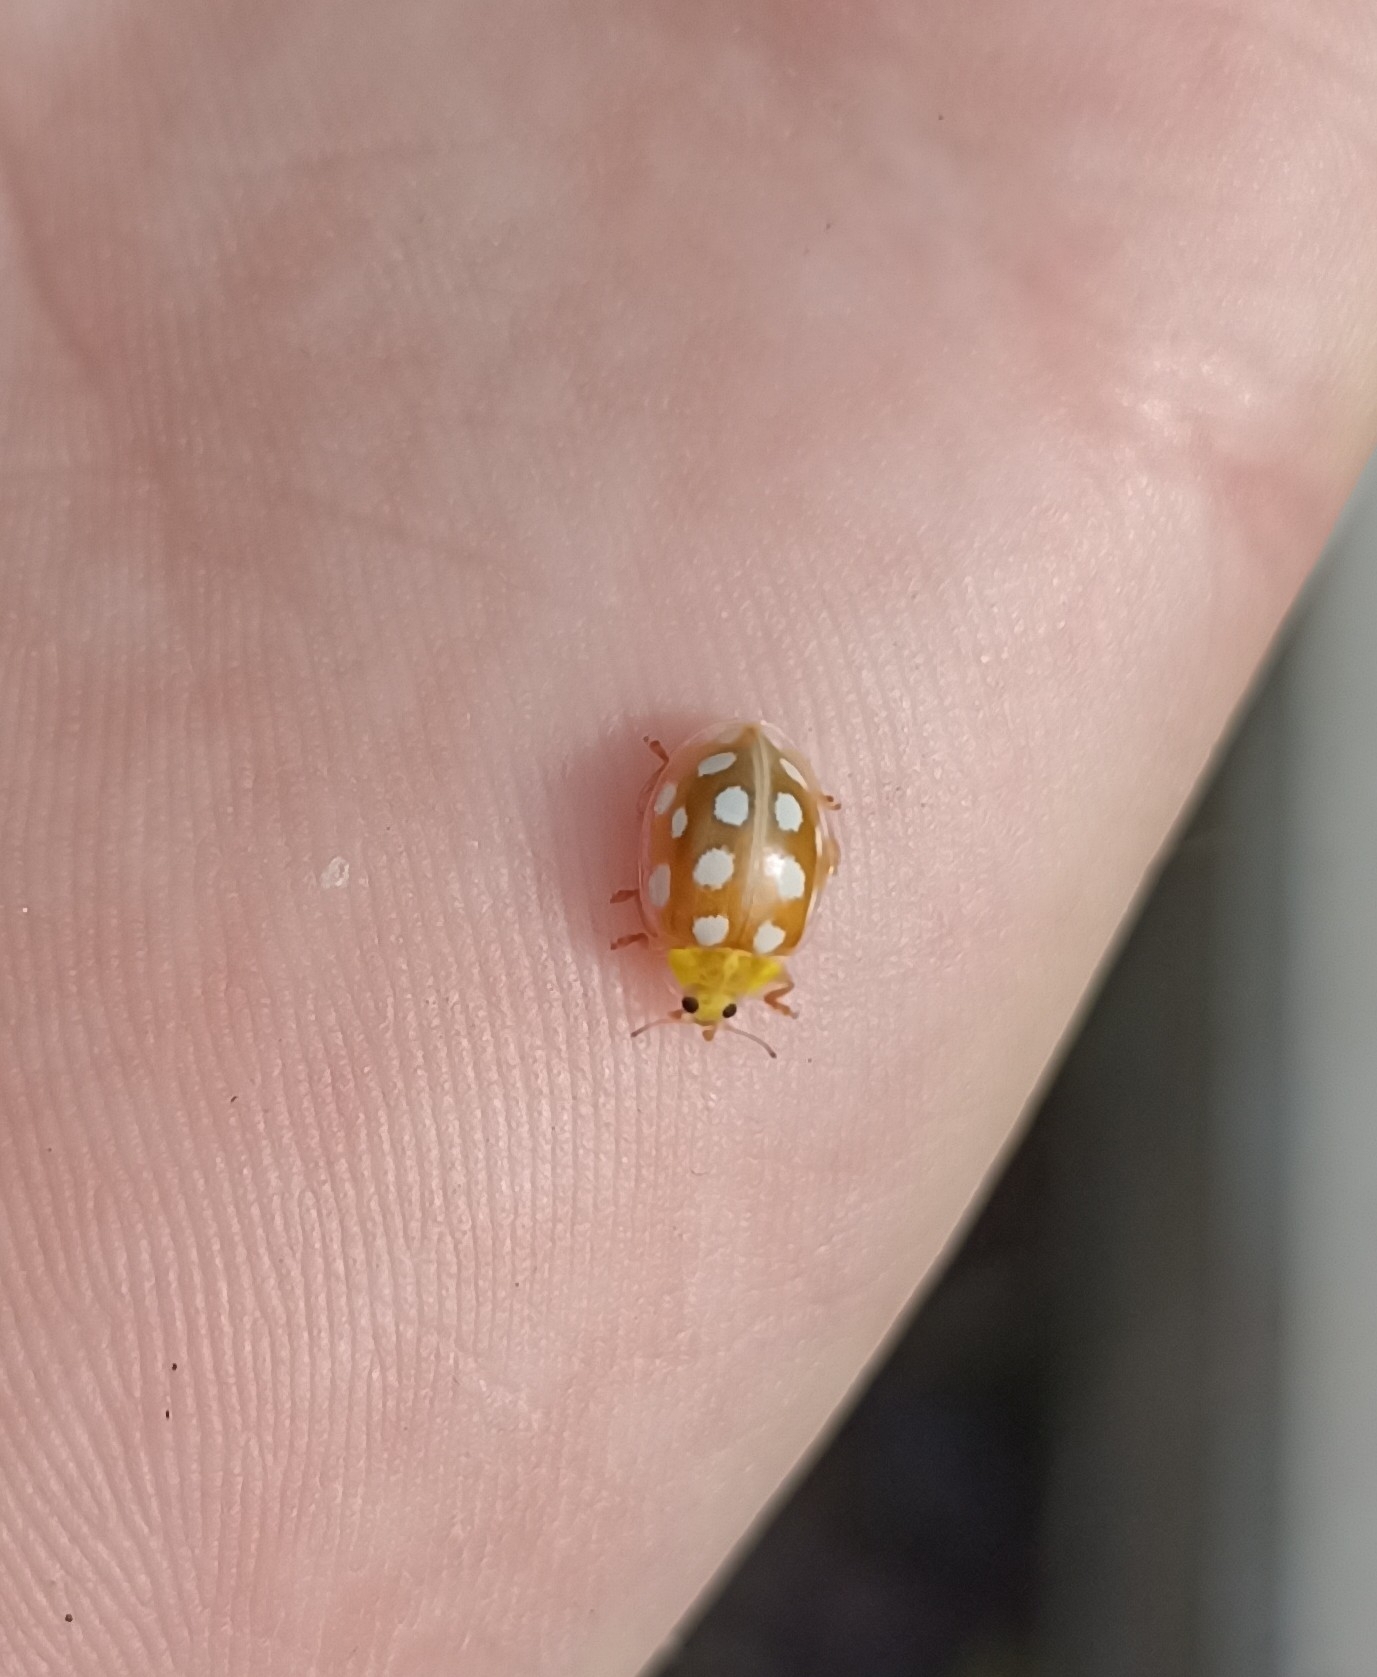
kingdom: Animalia
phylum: Arthropoda
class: Insecta
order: Coleoptera
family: Coccinellidae
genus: Halyzia
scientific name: Halyzia sedecimguttata
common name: Orange ladybird
